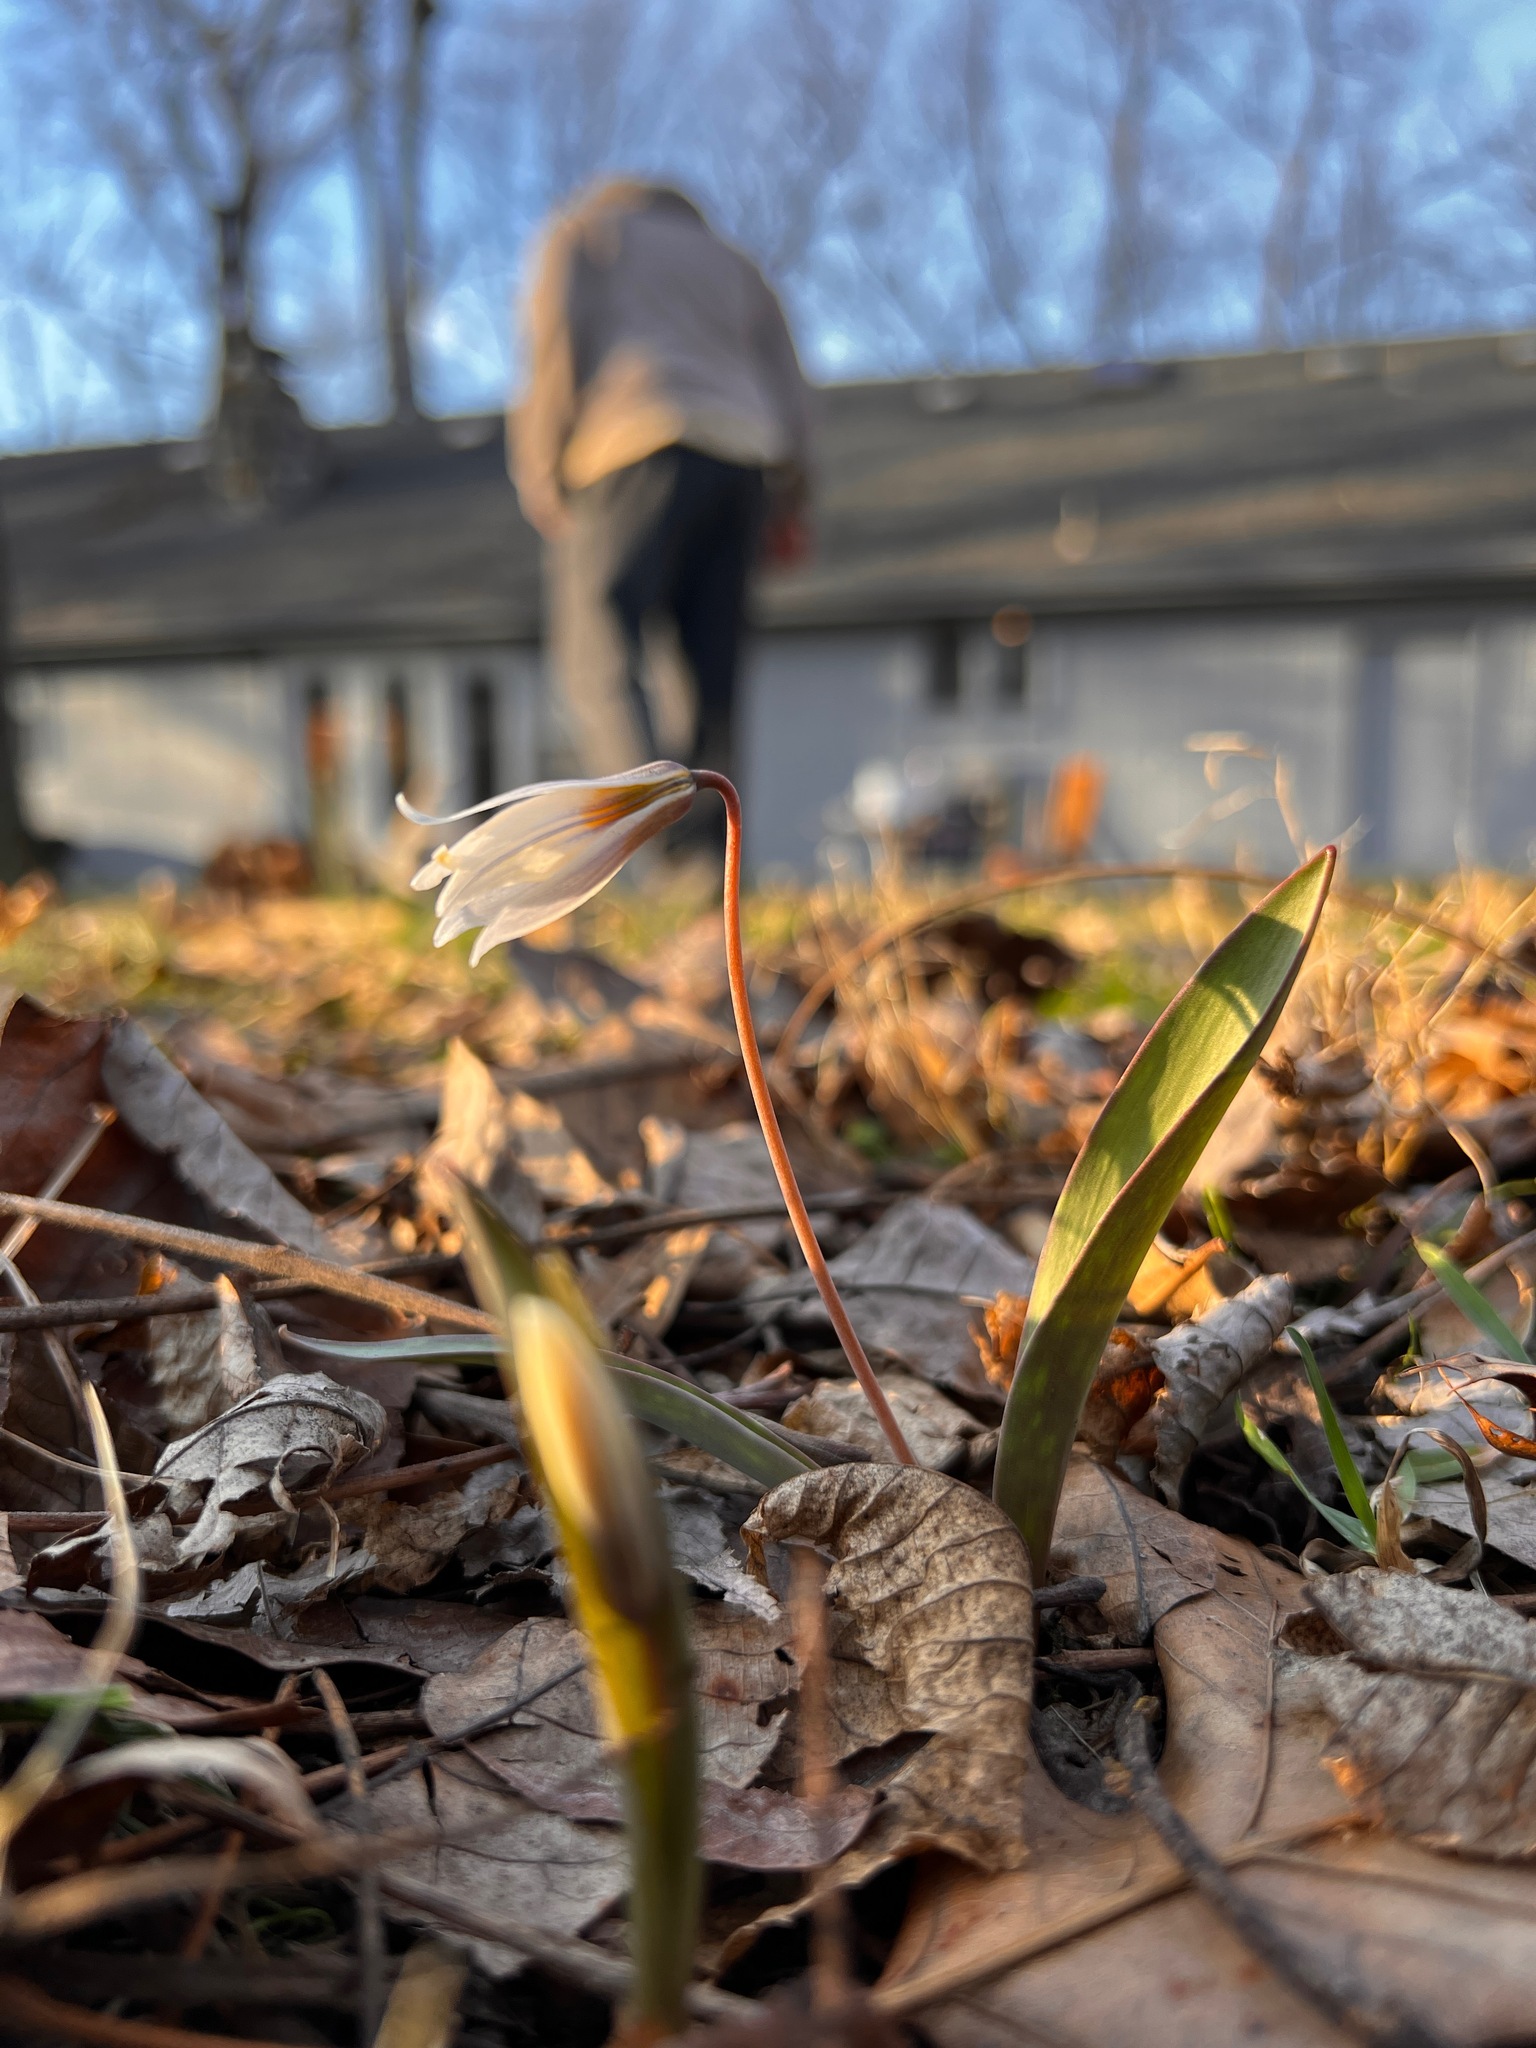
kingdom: Plantae
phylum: Tracheophyta
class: Liliopsida
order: Liliales
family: Liliaceae
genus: Erythronium
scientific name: Erythronium albidum
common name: White trout-lily
